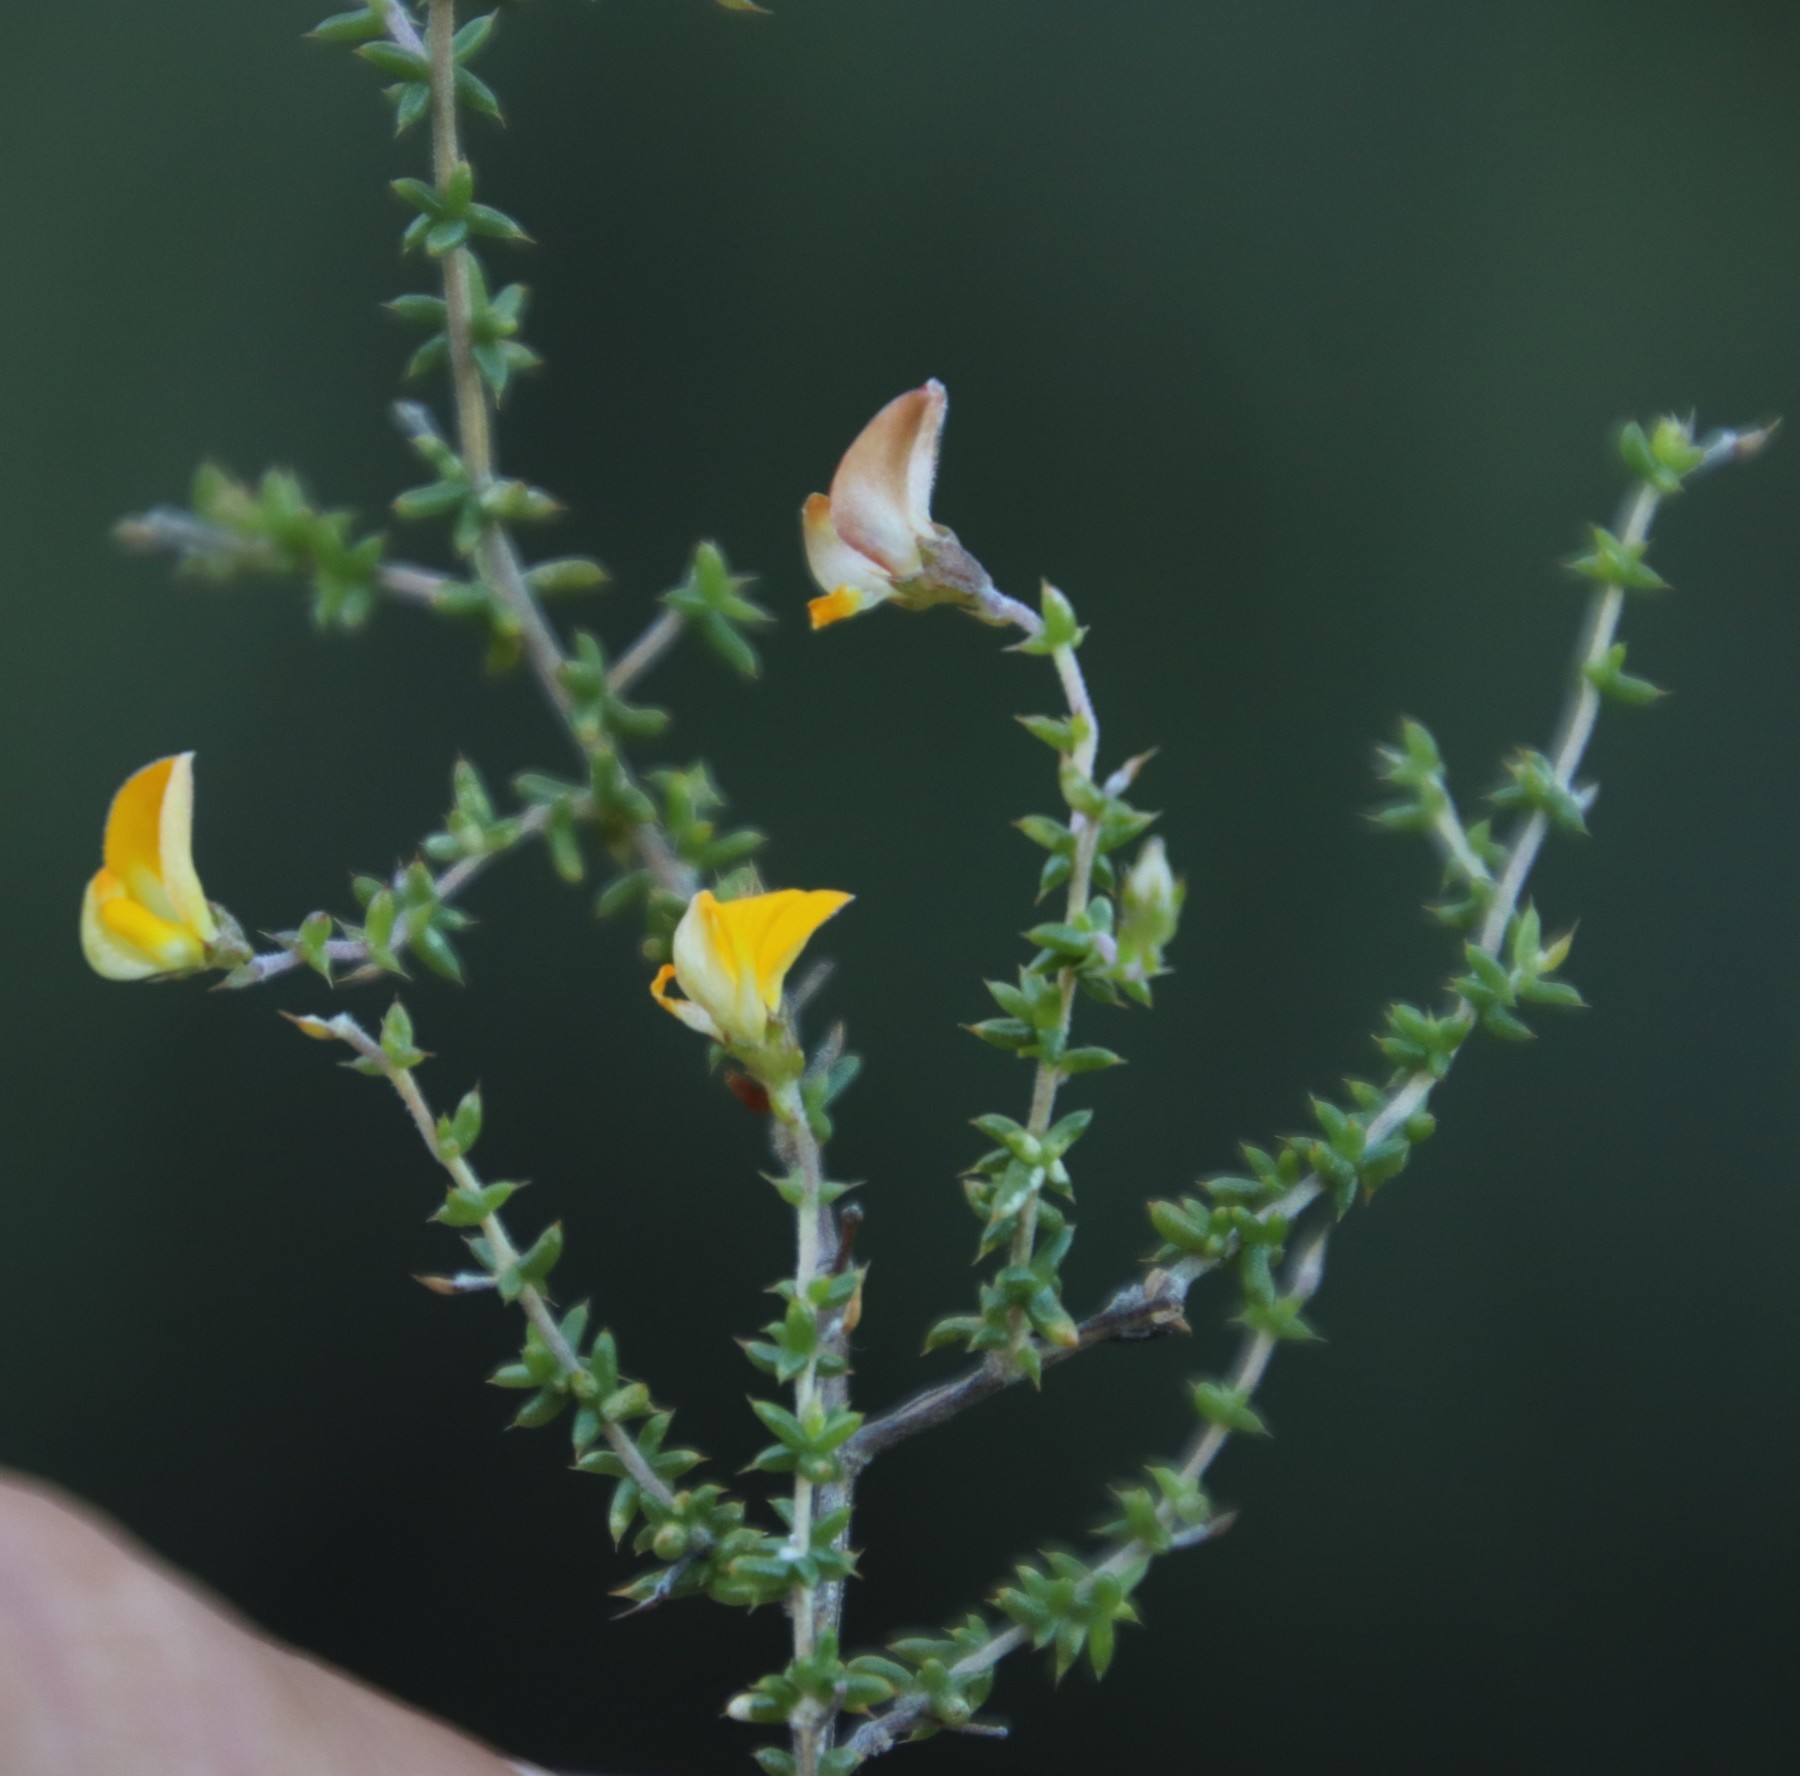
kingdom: Plantae
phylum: Tracheophyta
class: Magnoliopsida
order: Fabales
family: Fabaceae
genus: Aspalathus
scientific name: Aspalathus divaricata
